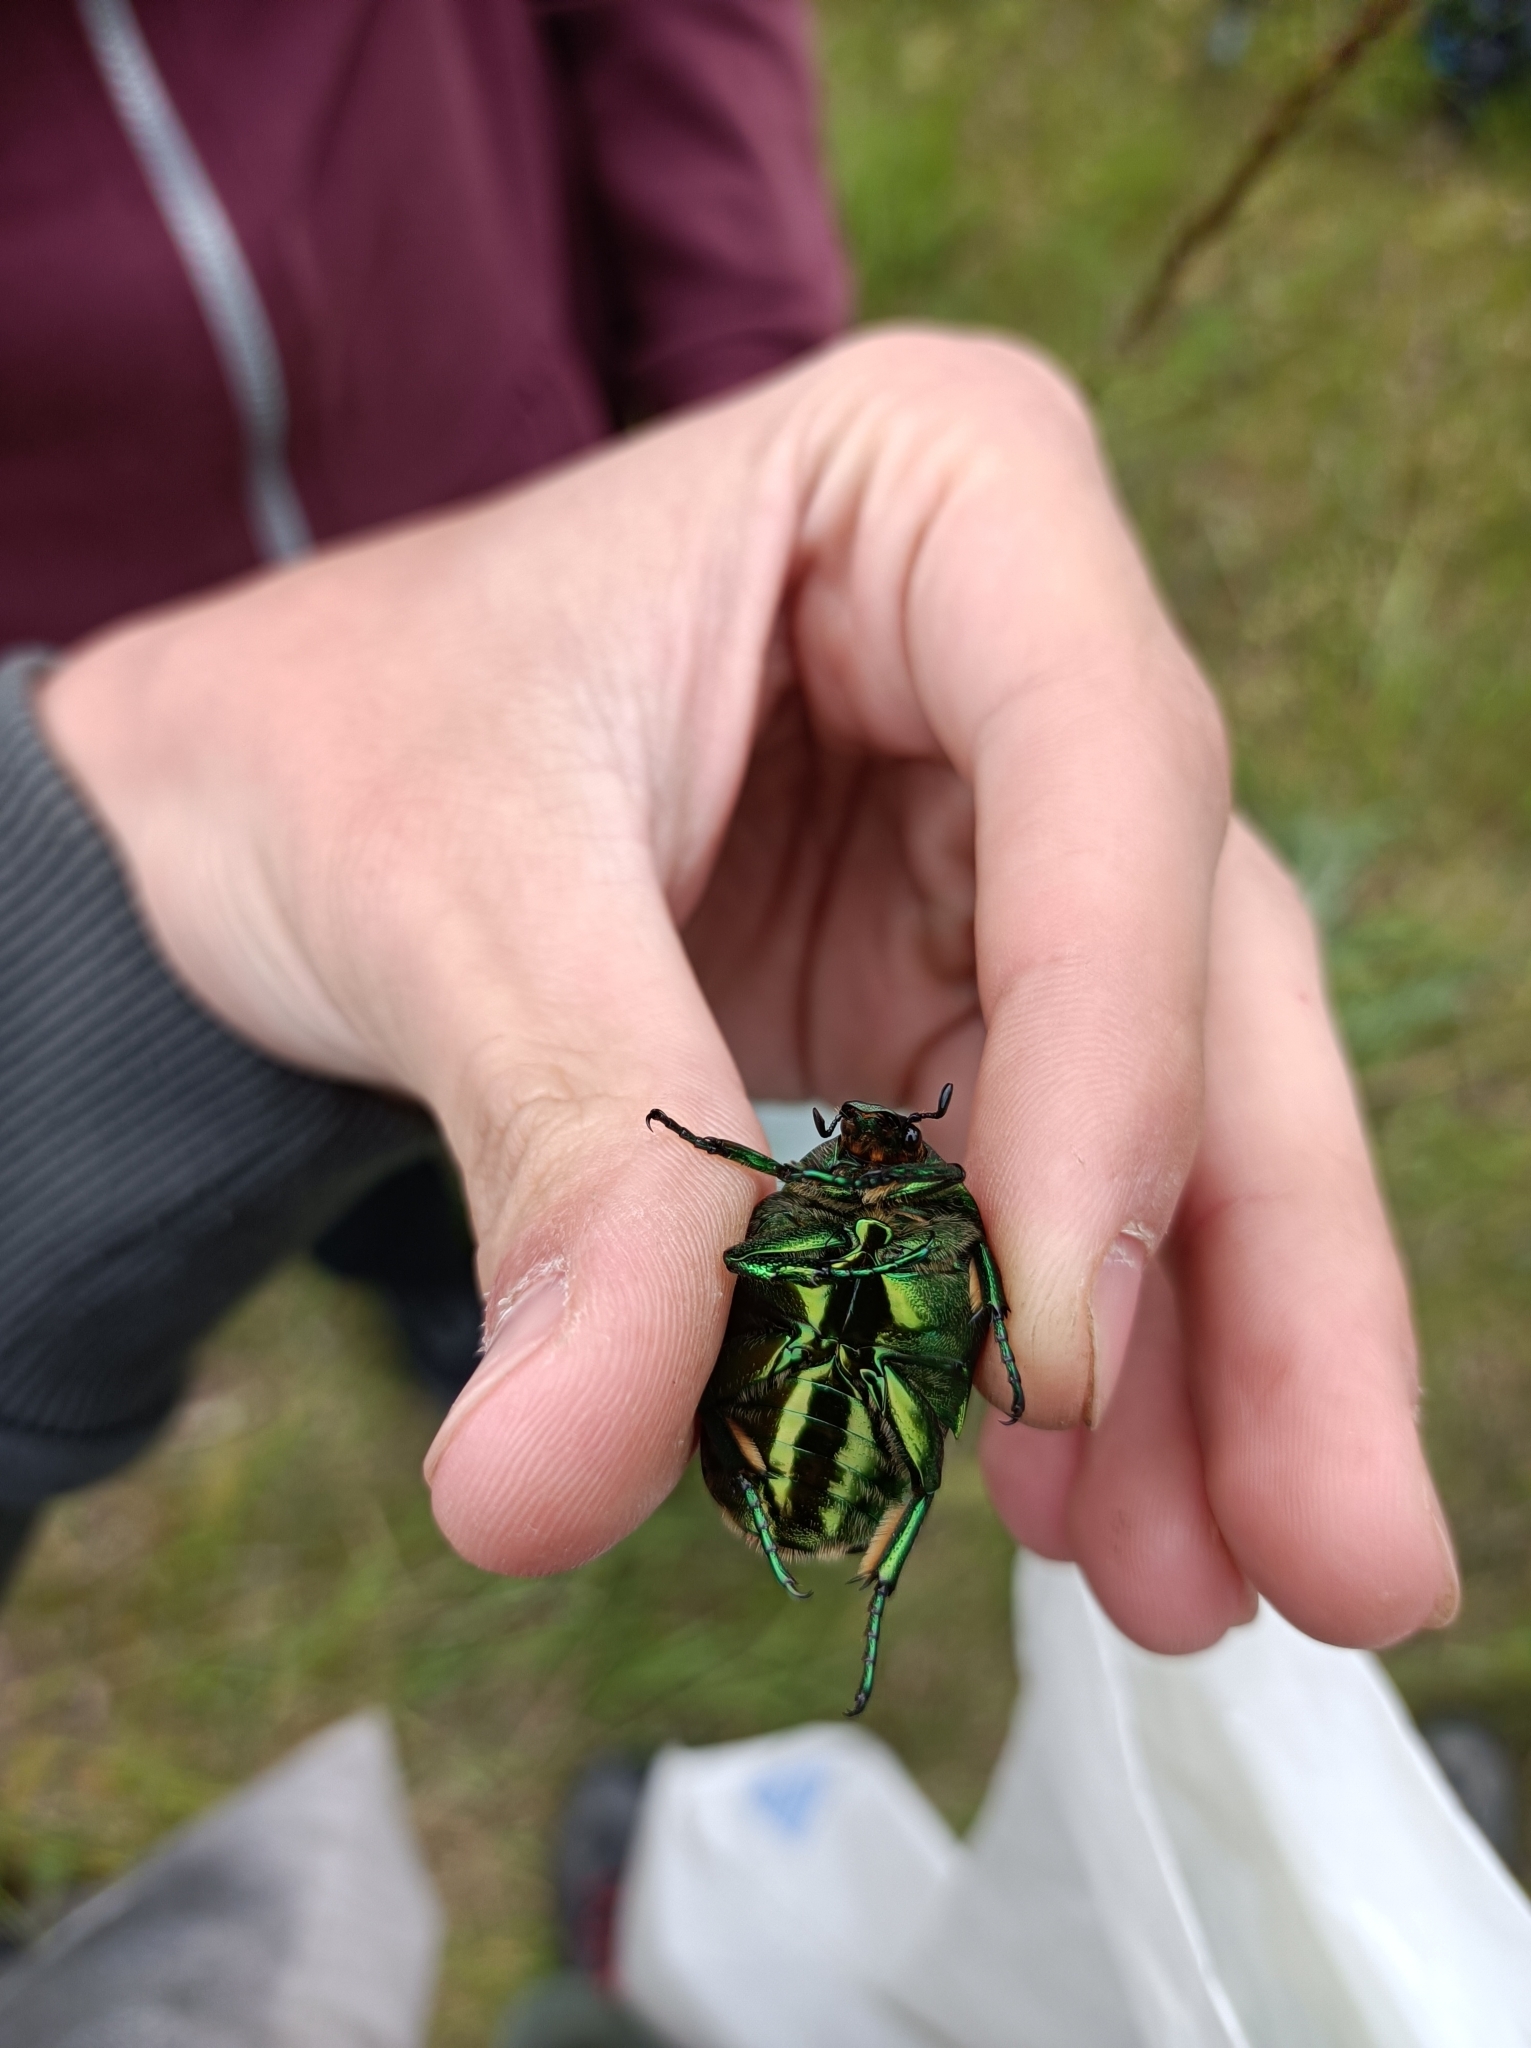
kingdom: Animalia
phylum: Arthropoda
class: Insecta
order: Coleoptera
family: Scarabaeidae
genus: Protaetia
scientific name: Protaetia speciosissima
